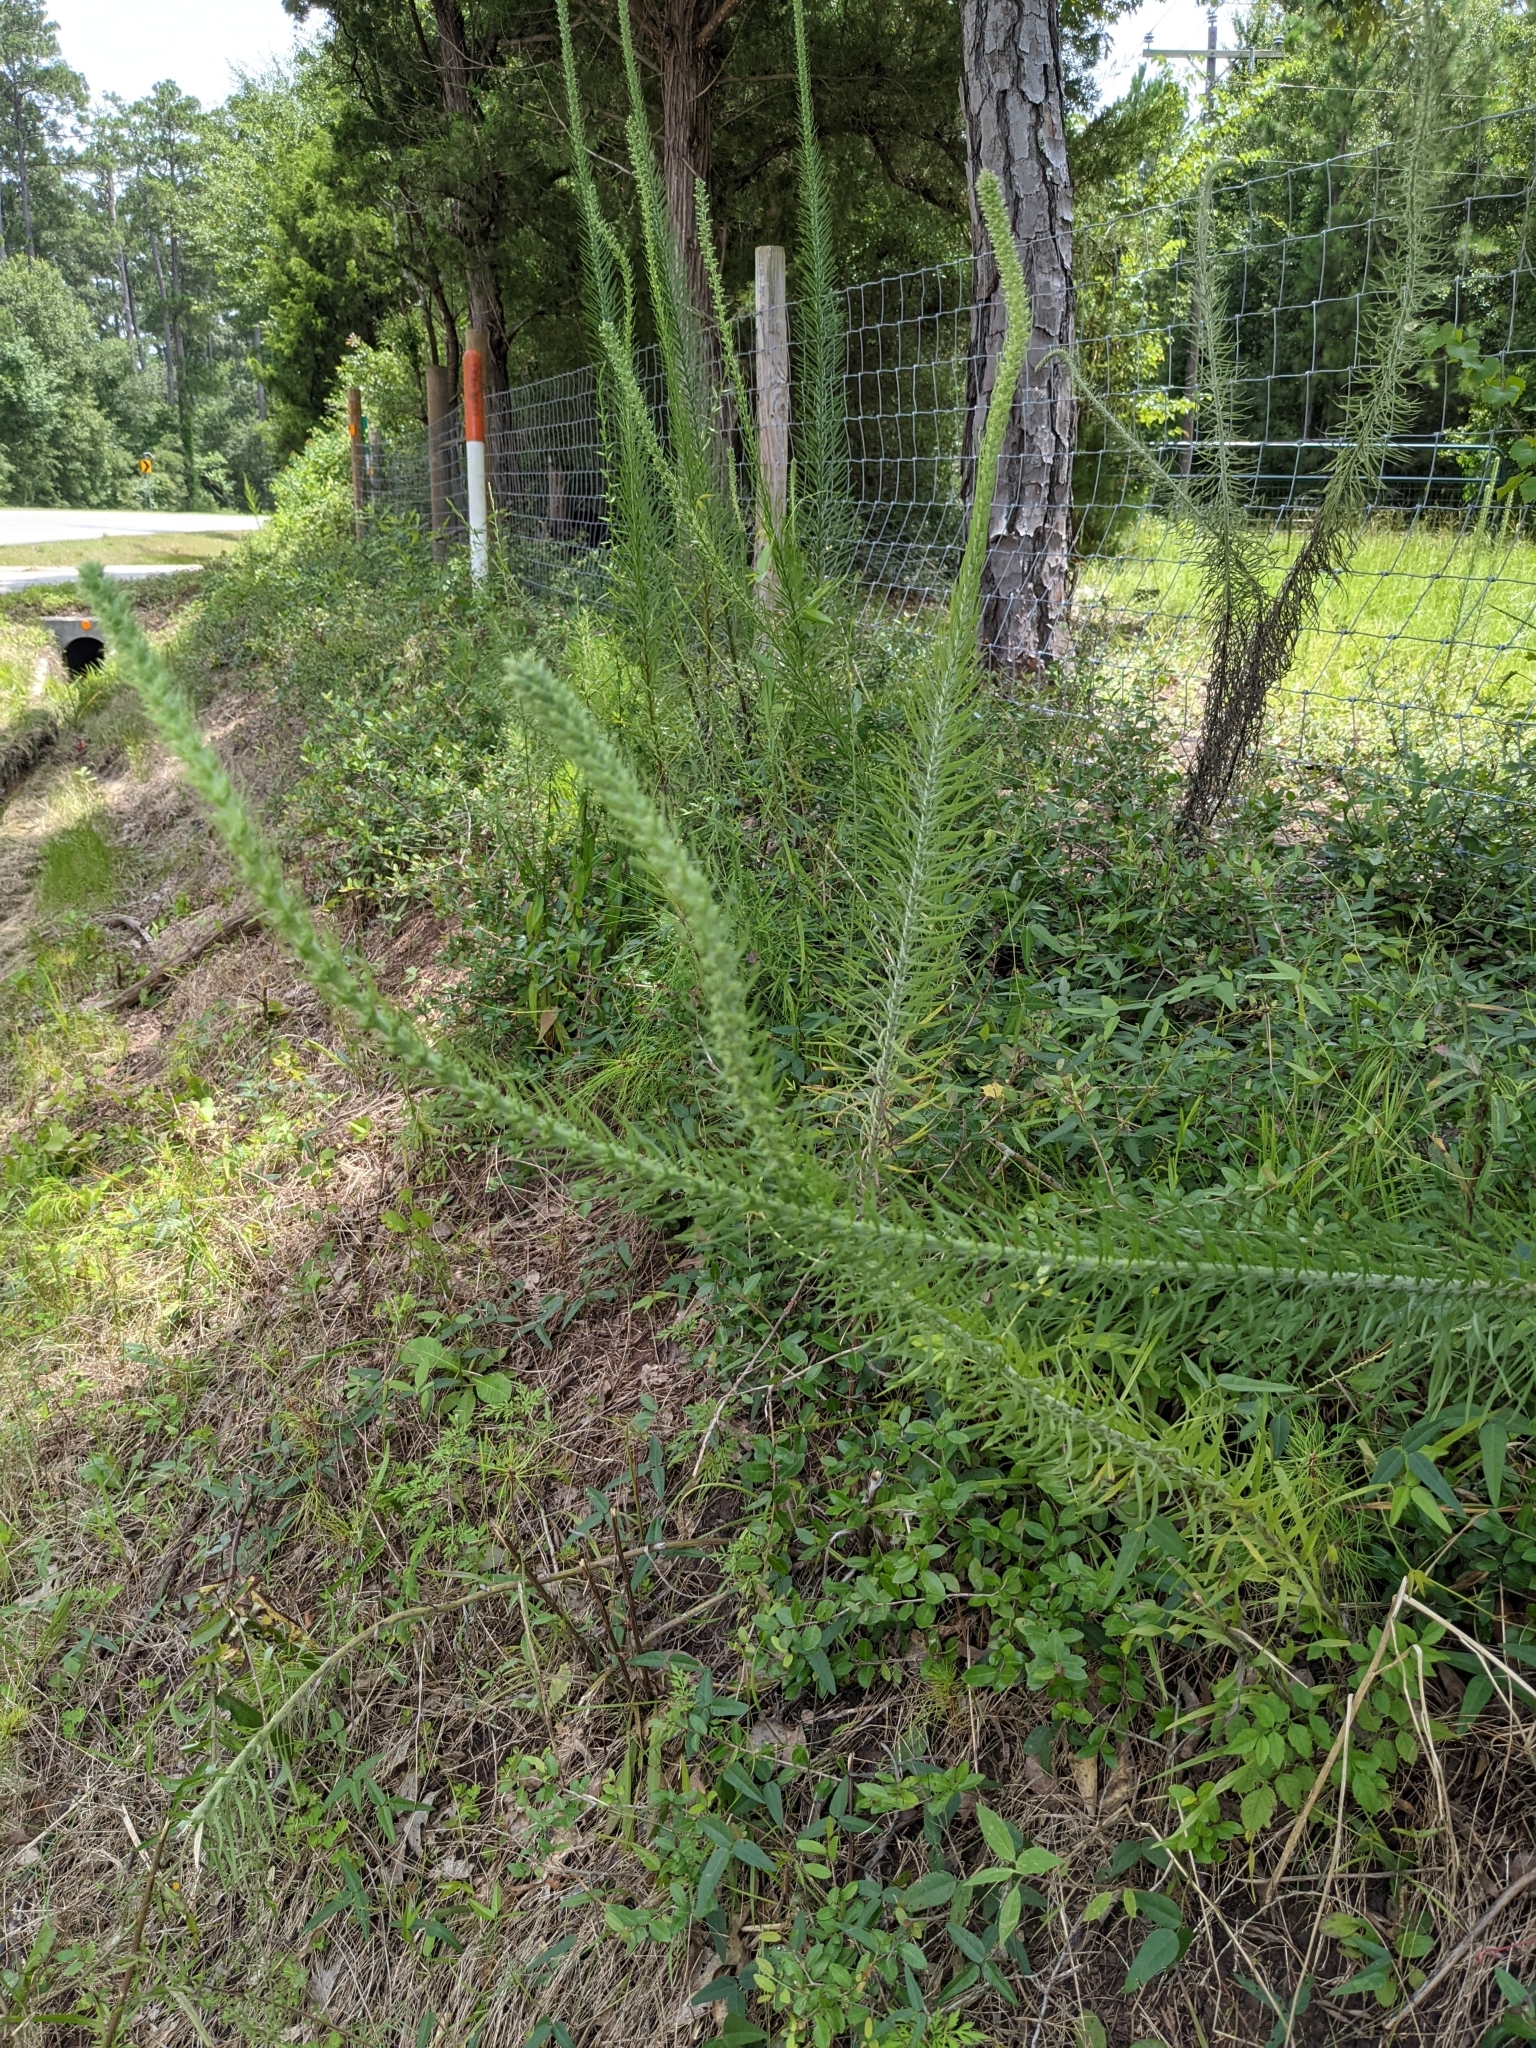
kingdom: Plantae
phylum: Tracheophyta
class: Magnoliopsida
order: Asterales
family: Asteraceae
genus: Liatris
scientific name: Liatris pycnostachya
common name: Cattail gayfeather
